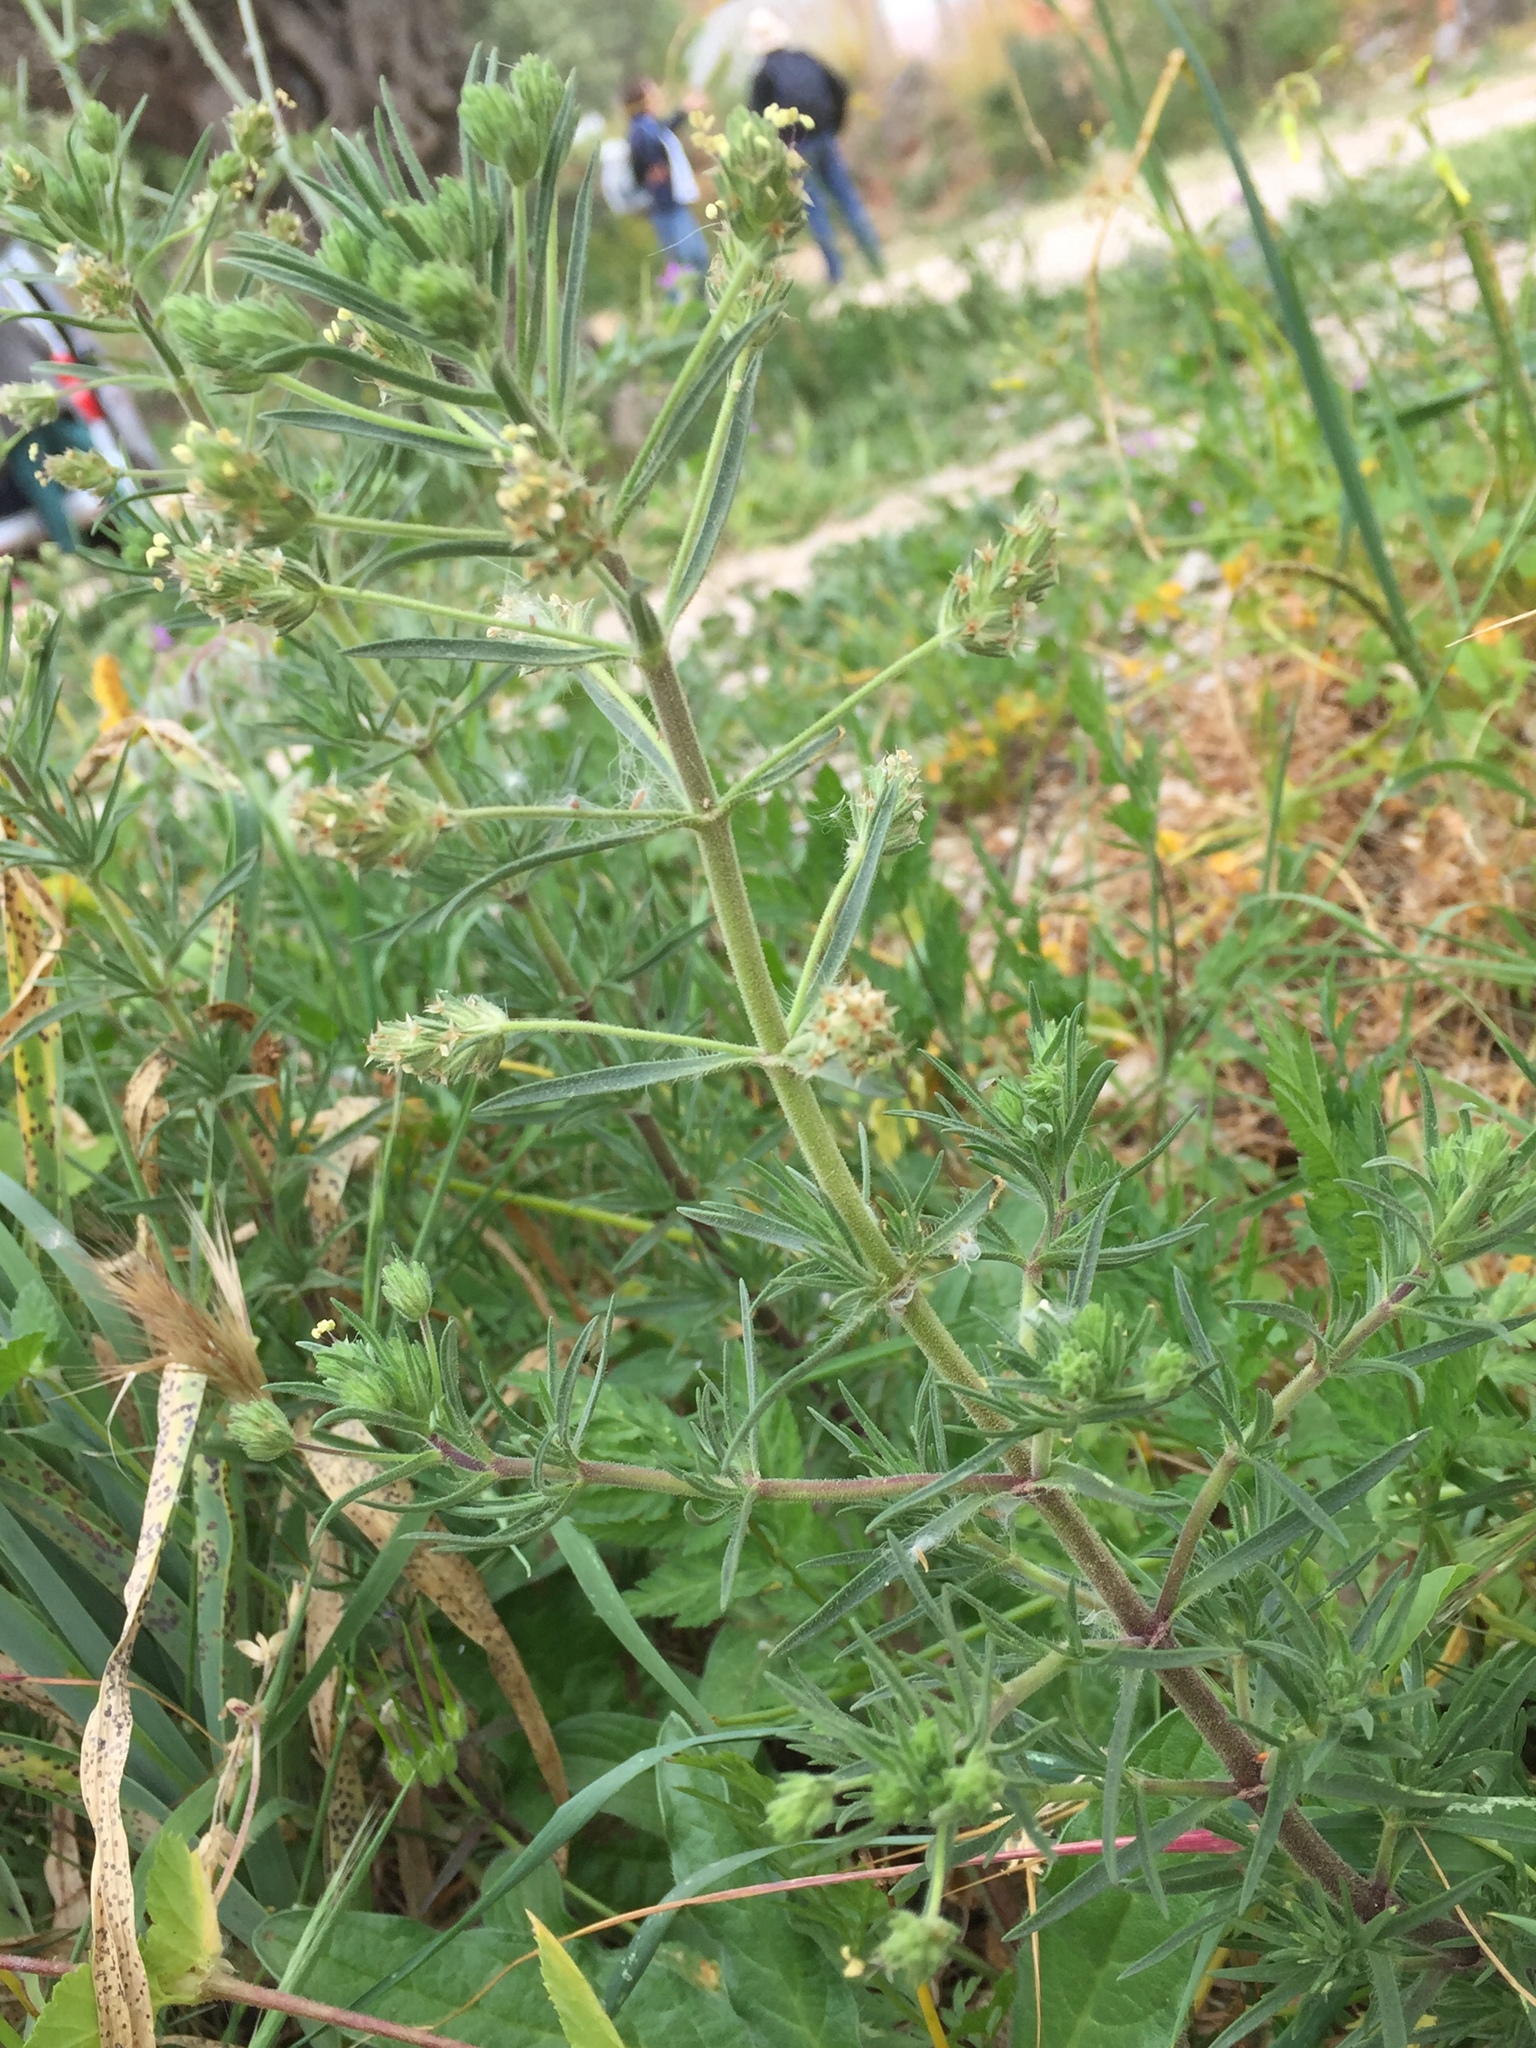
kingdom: Plantae
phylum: Tracheophyta
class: Magnoliopsida
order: Lamiales
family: Plantaginaceae
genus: Plantago
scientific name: Plantago afra
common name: Glandular plantain
